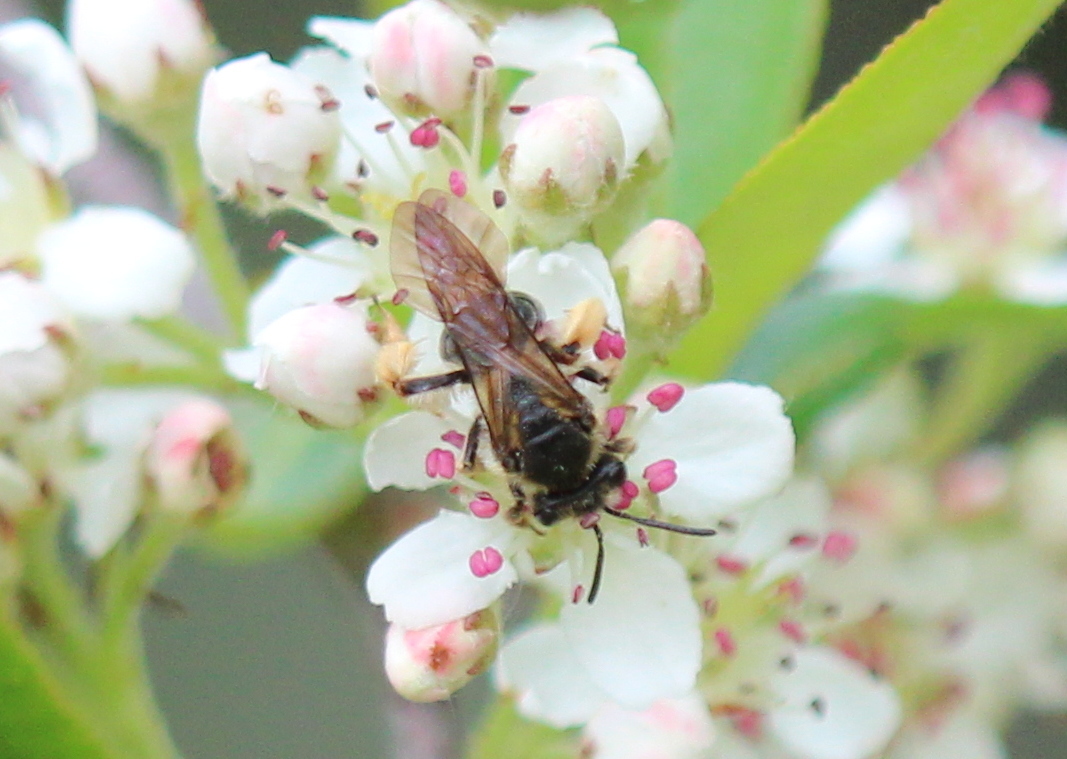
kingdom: Animalia
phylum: Arthropoda
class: Insecta
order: Hymenoptera
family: Andrenidae
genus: Andrena
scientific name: Andrena crataegi
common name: Hawthorn mining bee
